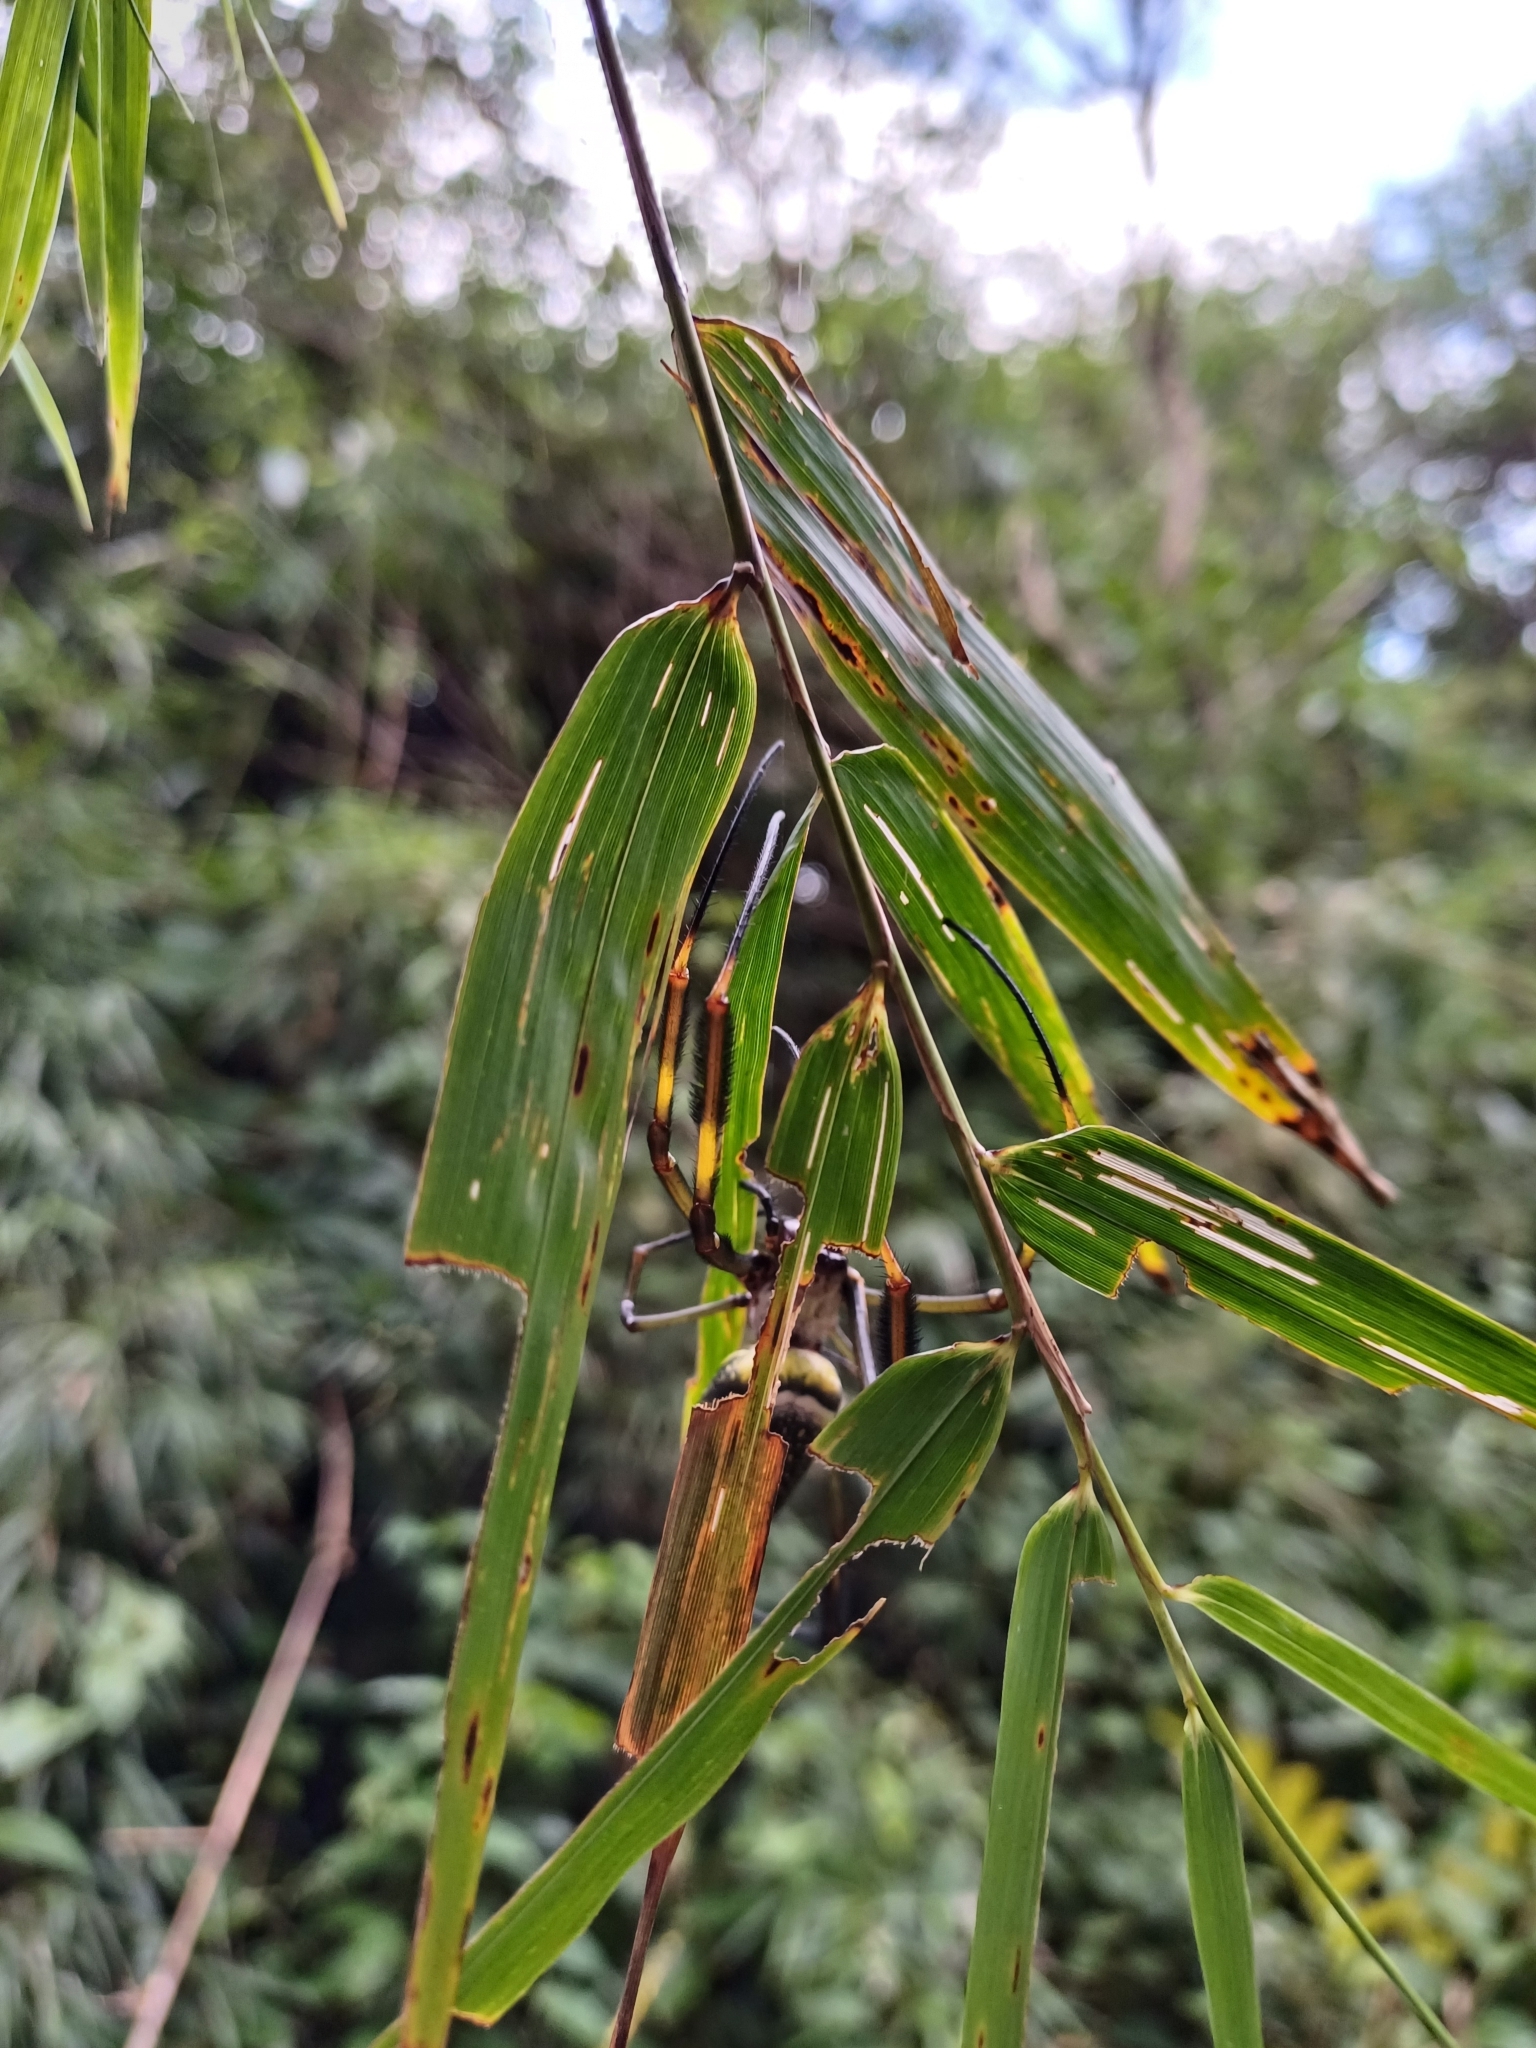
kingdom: Animalia
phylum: Arthropoda
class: Arachnida
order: Araneae
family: Araneidae
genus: Trichonephila
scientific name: Trichonephila clavipes
